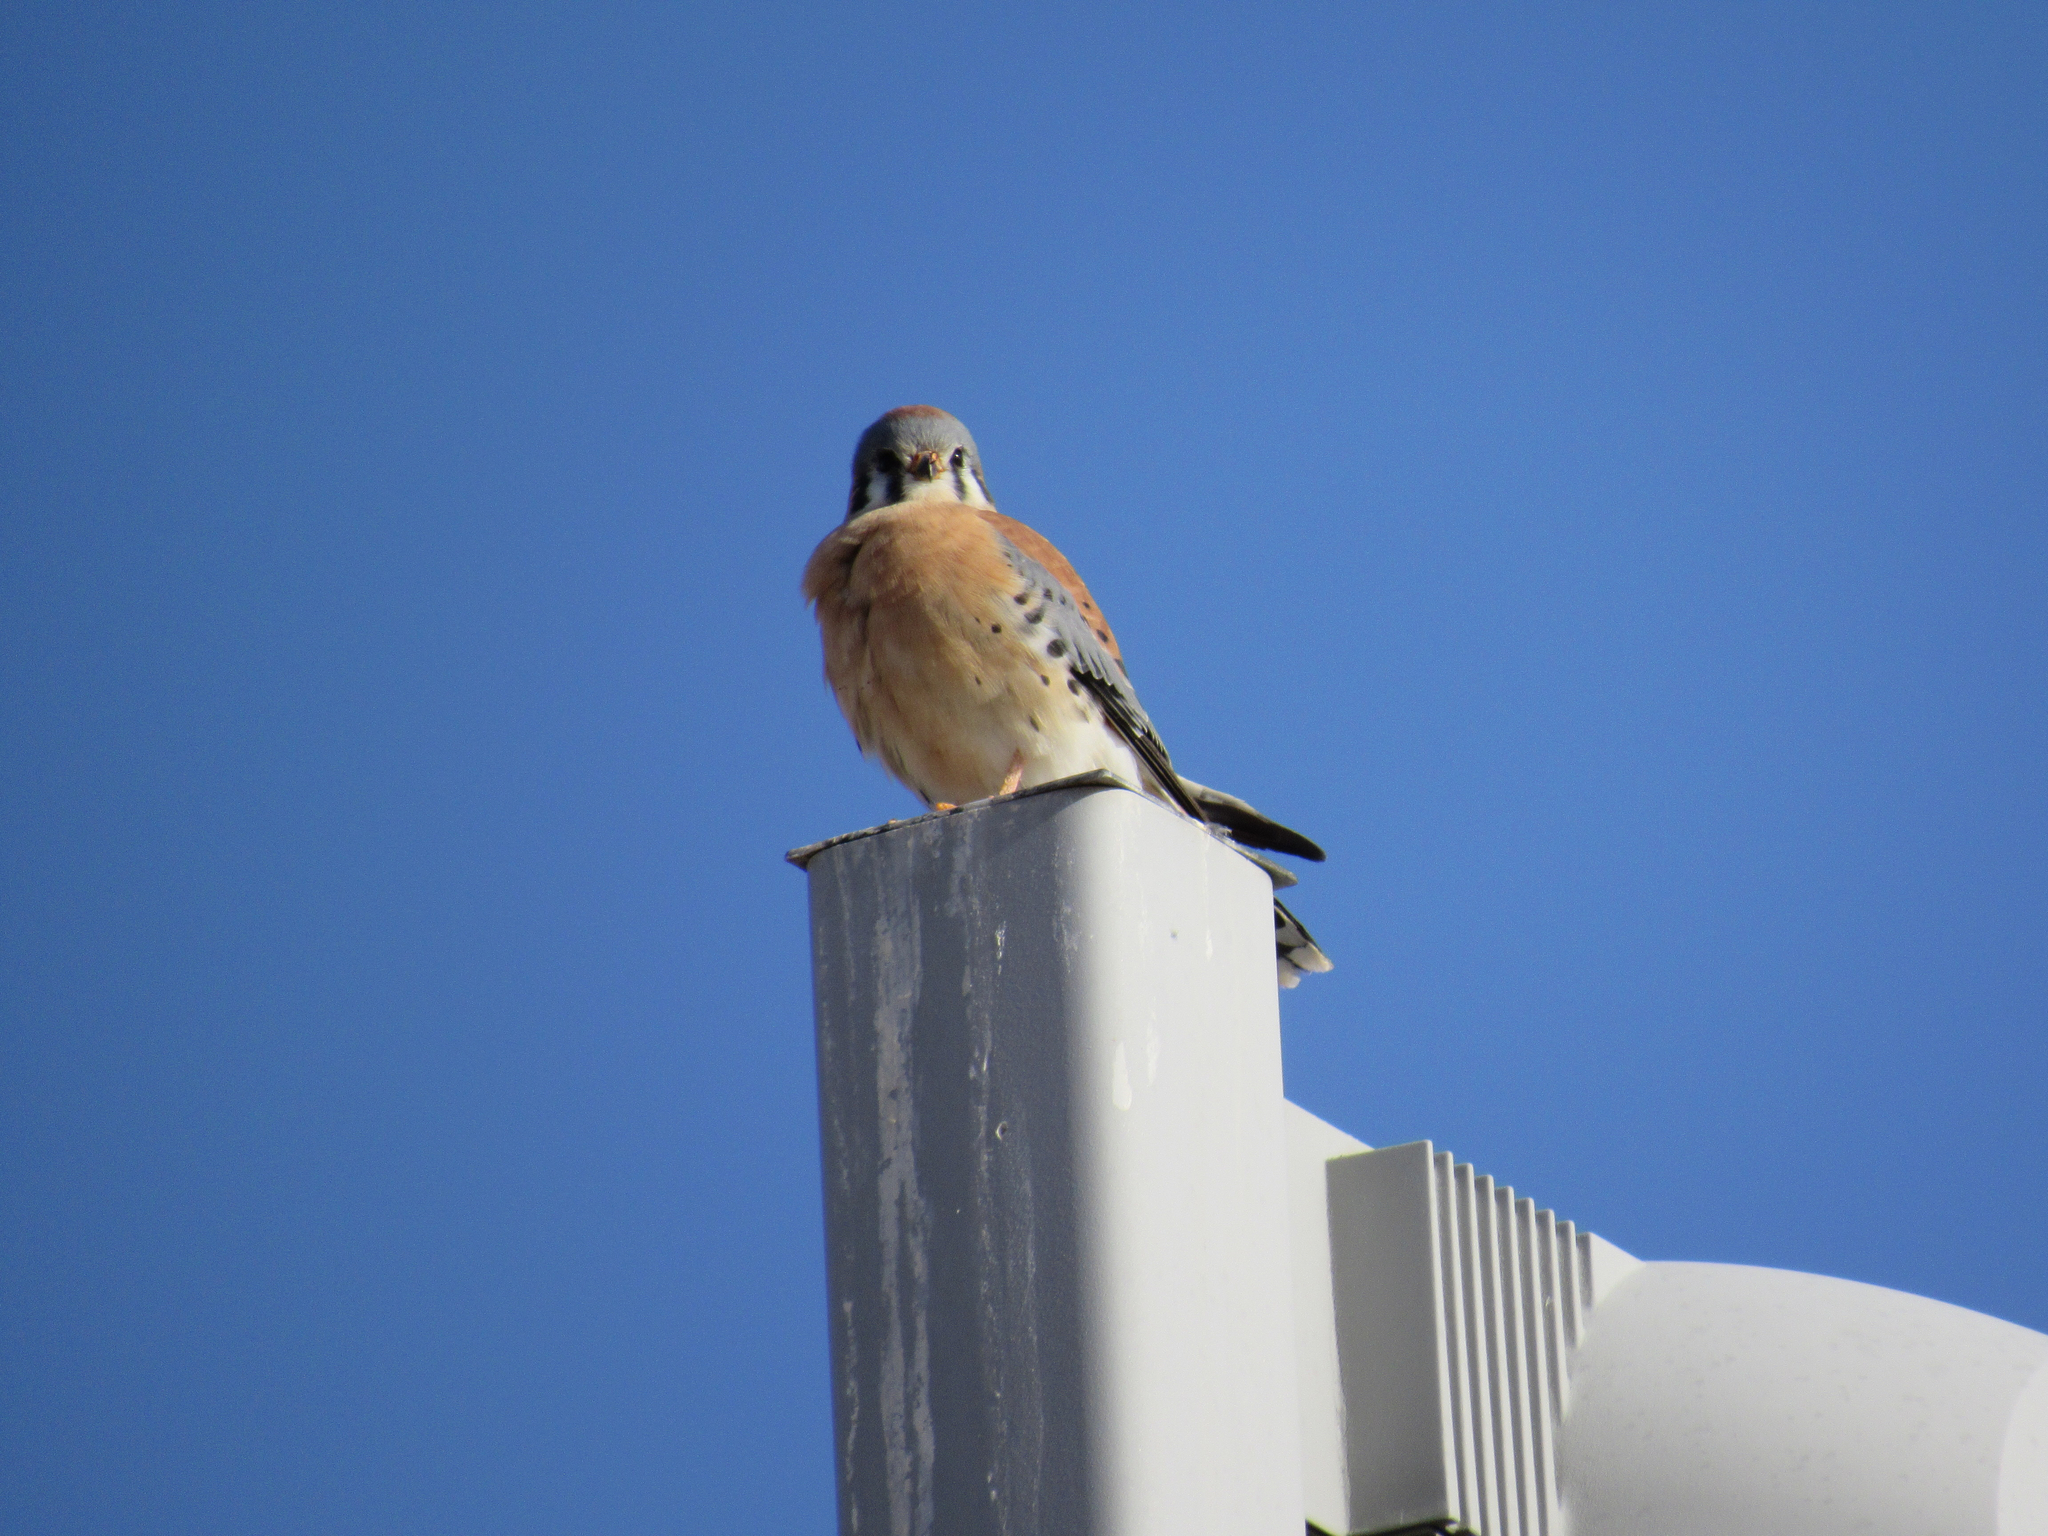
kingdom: Animalia
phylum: Chordata
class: Aves
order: Falconiformes
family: Falconidae
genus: Falco
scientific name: Falco sparverius
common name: American kestrel
